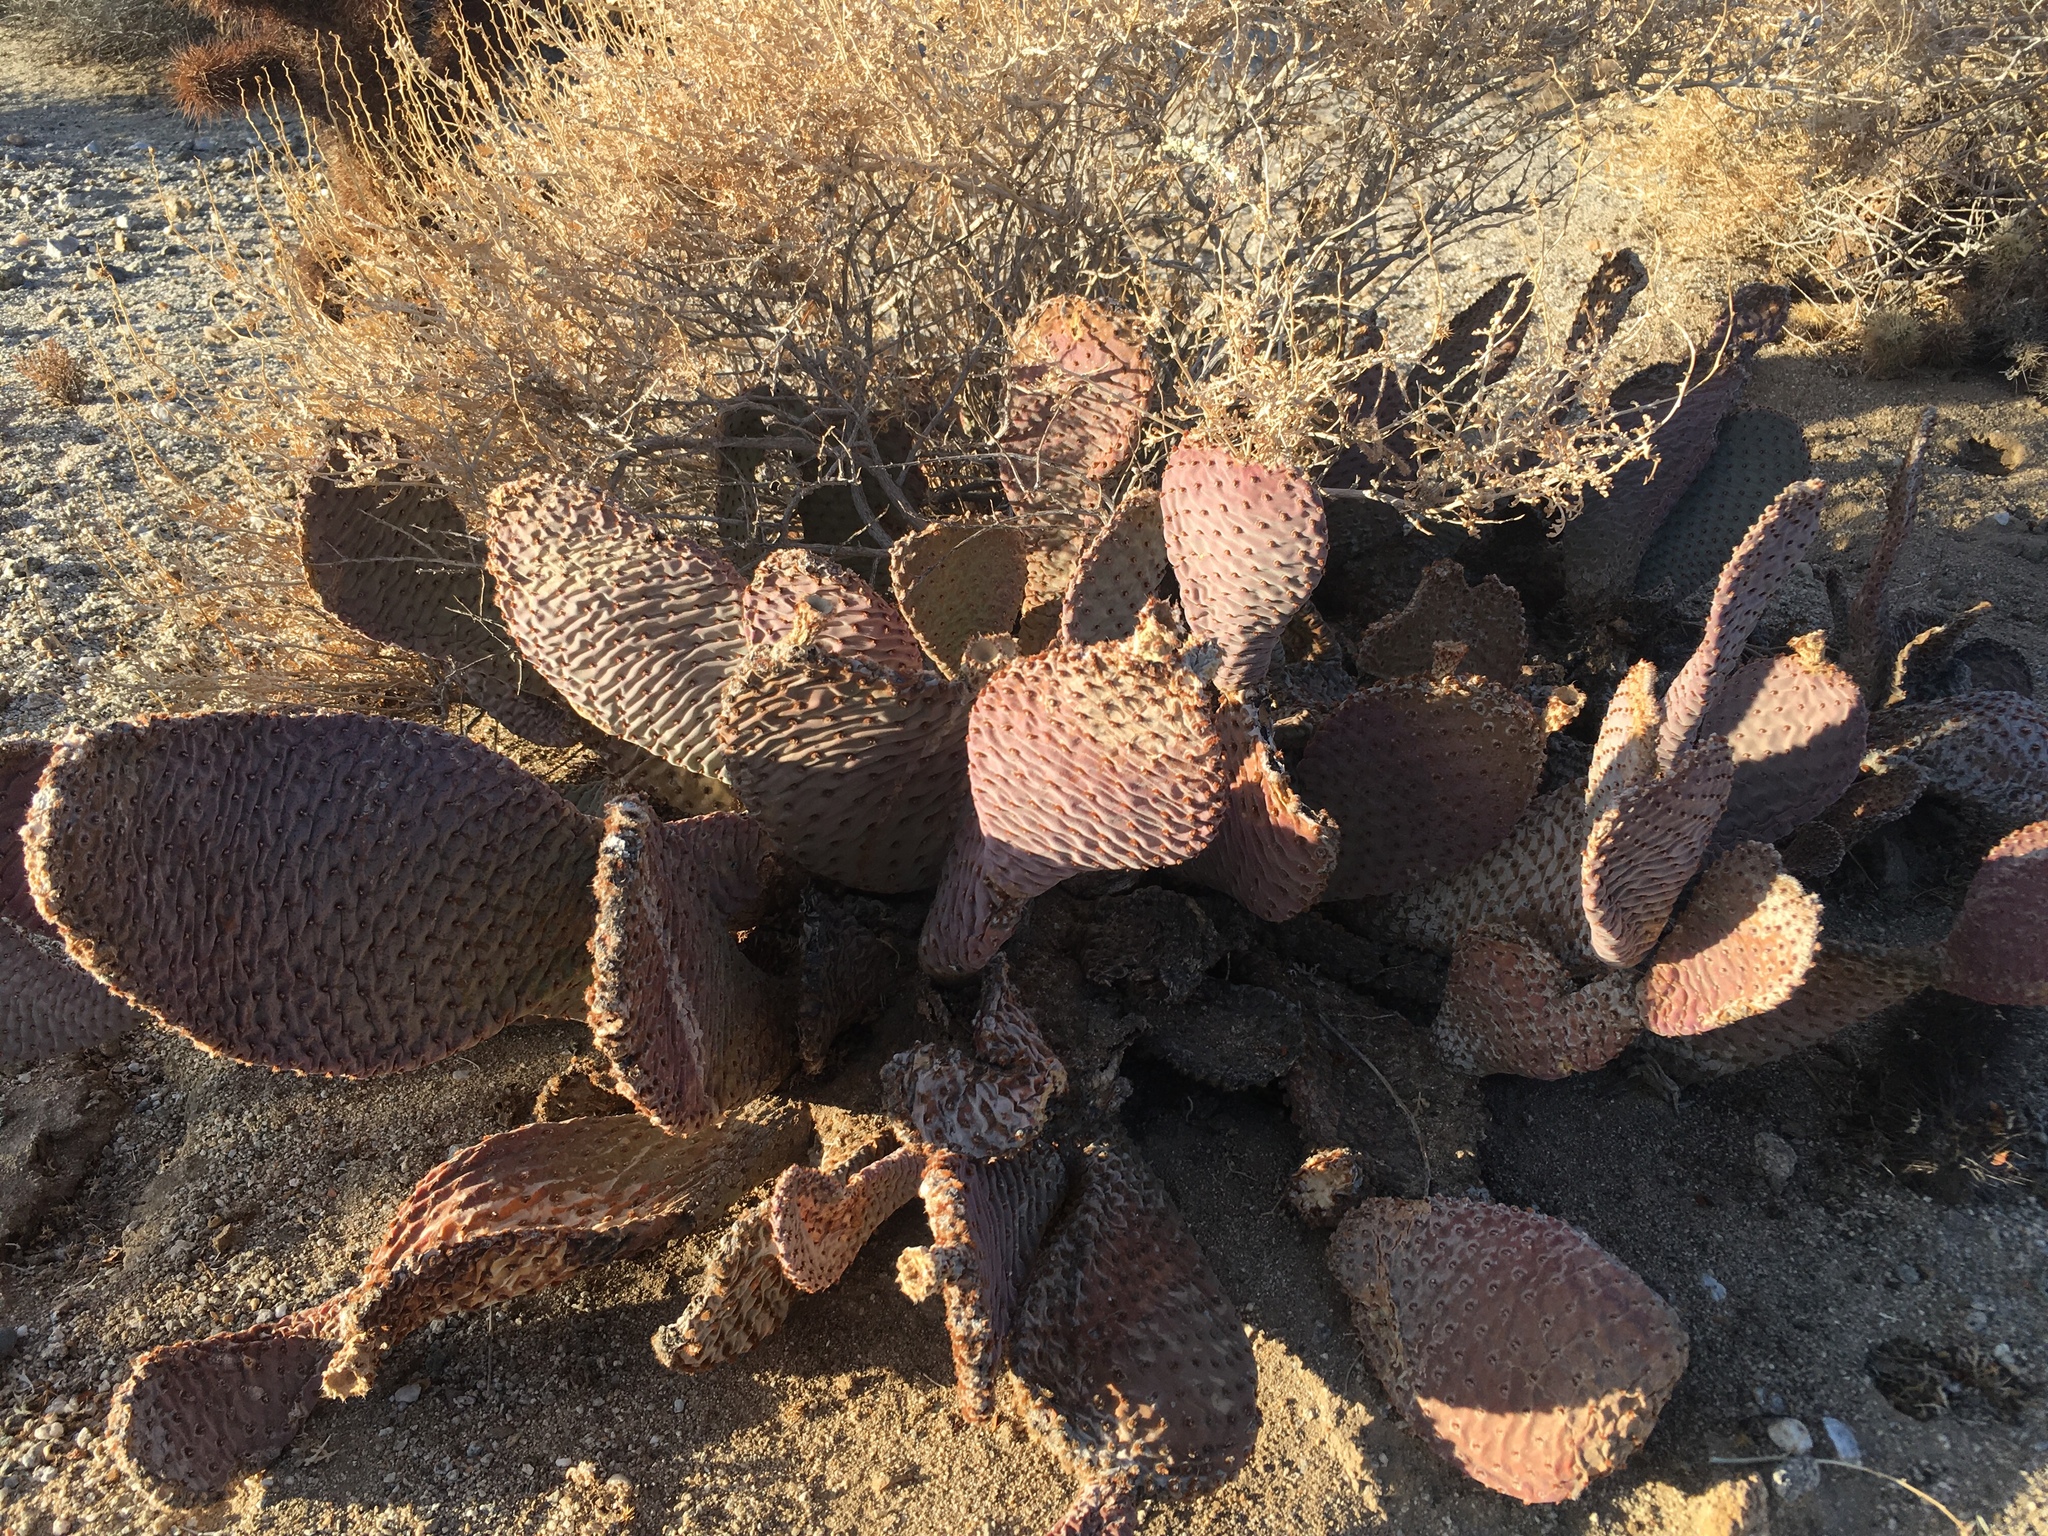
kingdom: Plantae
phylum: Tracheophyta
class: Magnoliopsida
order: Caryophyllales
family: Cactaceae
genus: Opuntia
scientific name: Opuntia basilaris
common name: Beavertail prickly-pear
